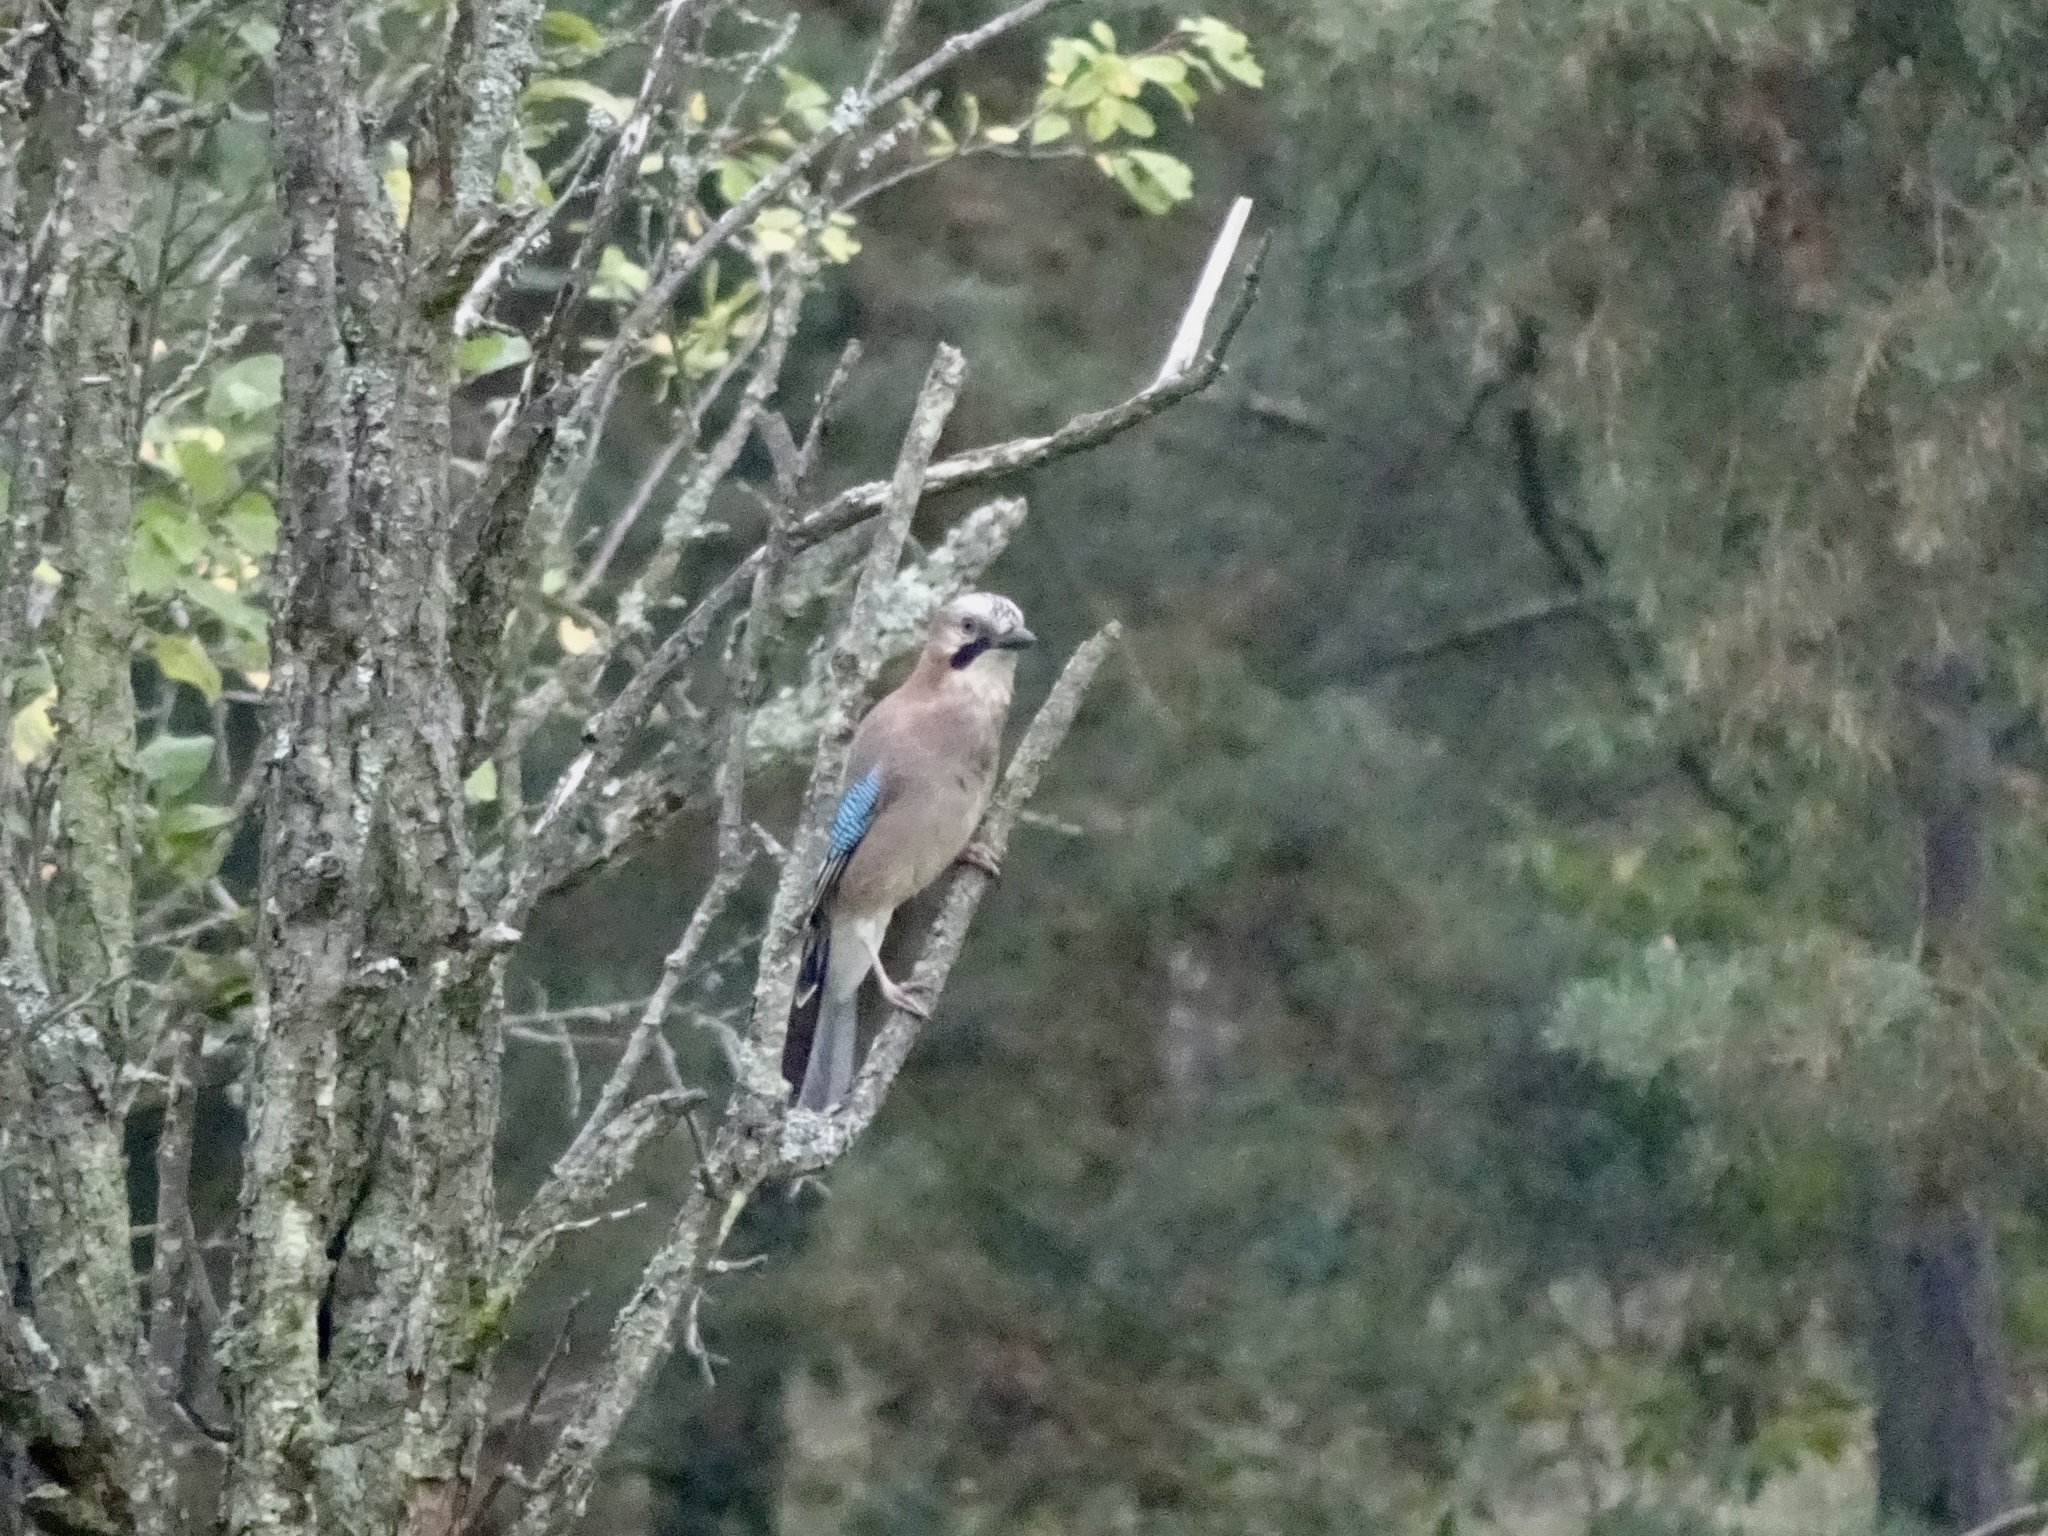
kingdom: Animalia
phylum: Chordata
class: Aves
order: Passeriformes
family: Corvidae
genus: Garrulus
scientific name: Garrulus glandarius
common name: Eurasian jay
